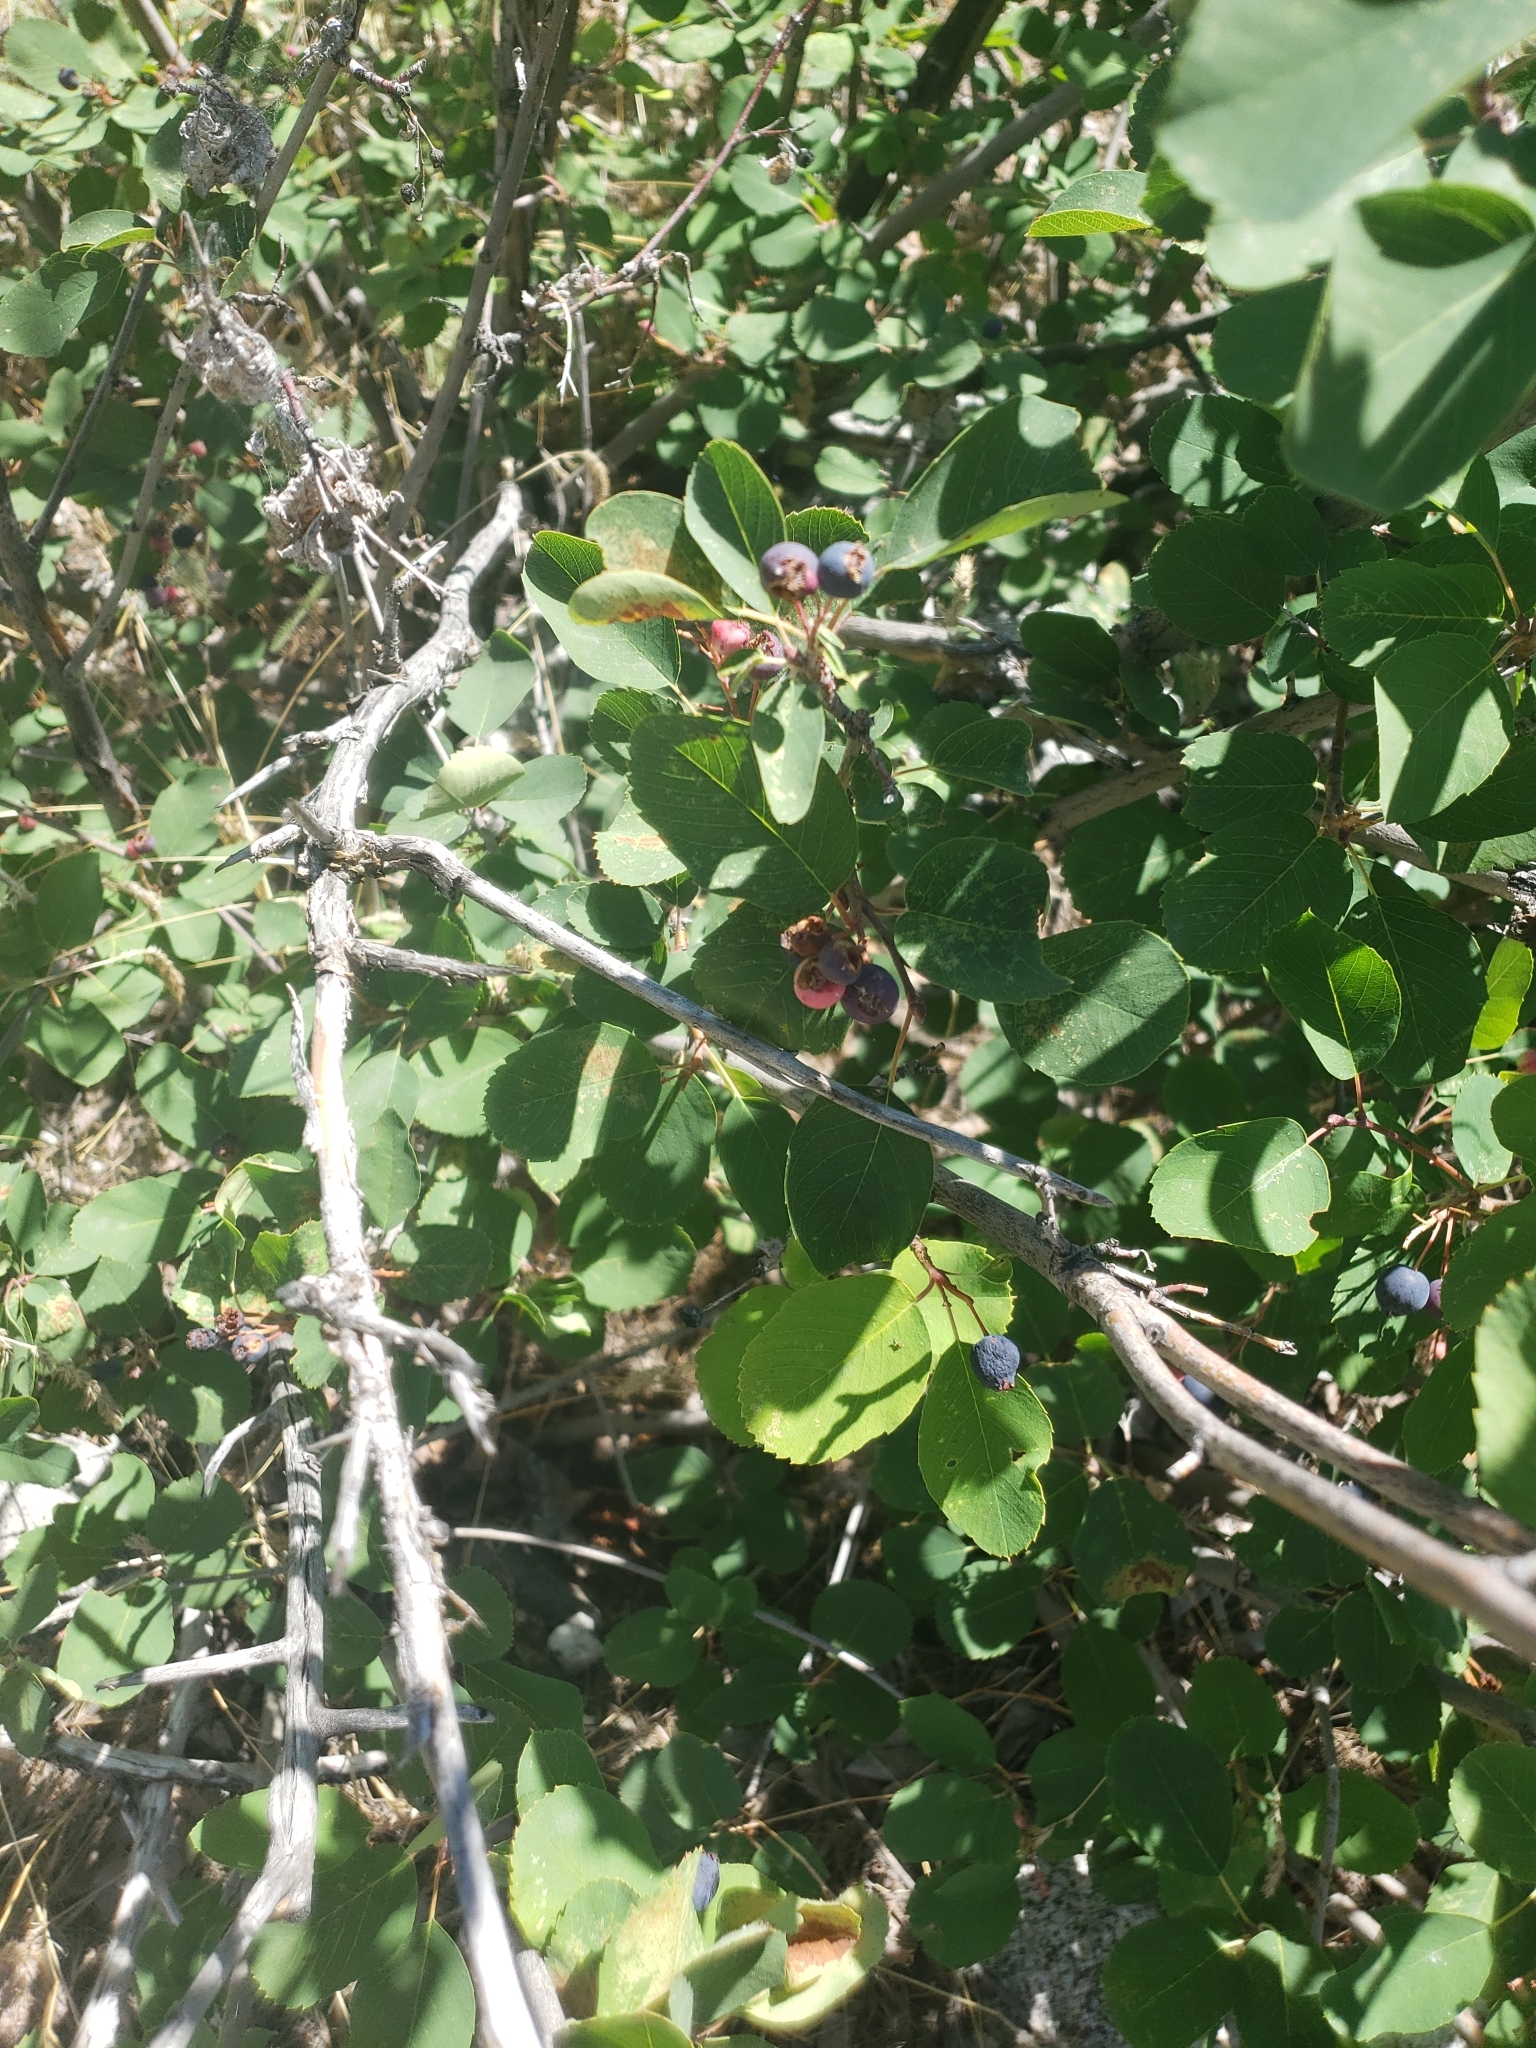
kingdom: Plantae
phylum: Tracheophyta
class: Magnoliopsida
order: Rosales
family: Rosaceae
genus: Amelanchier
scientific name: Amelanchier alnifolia
